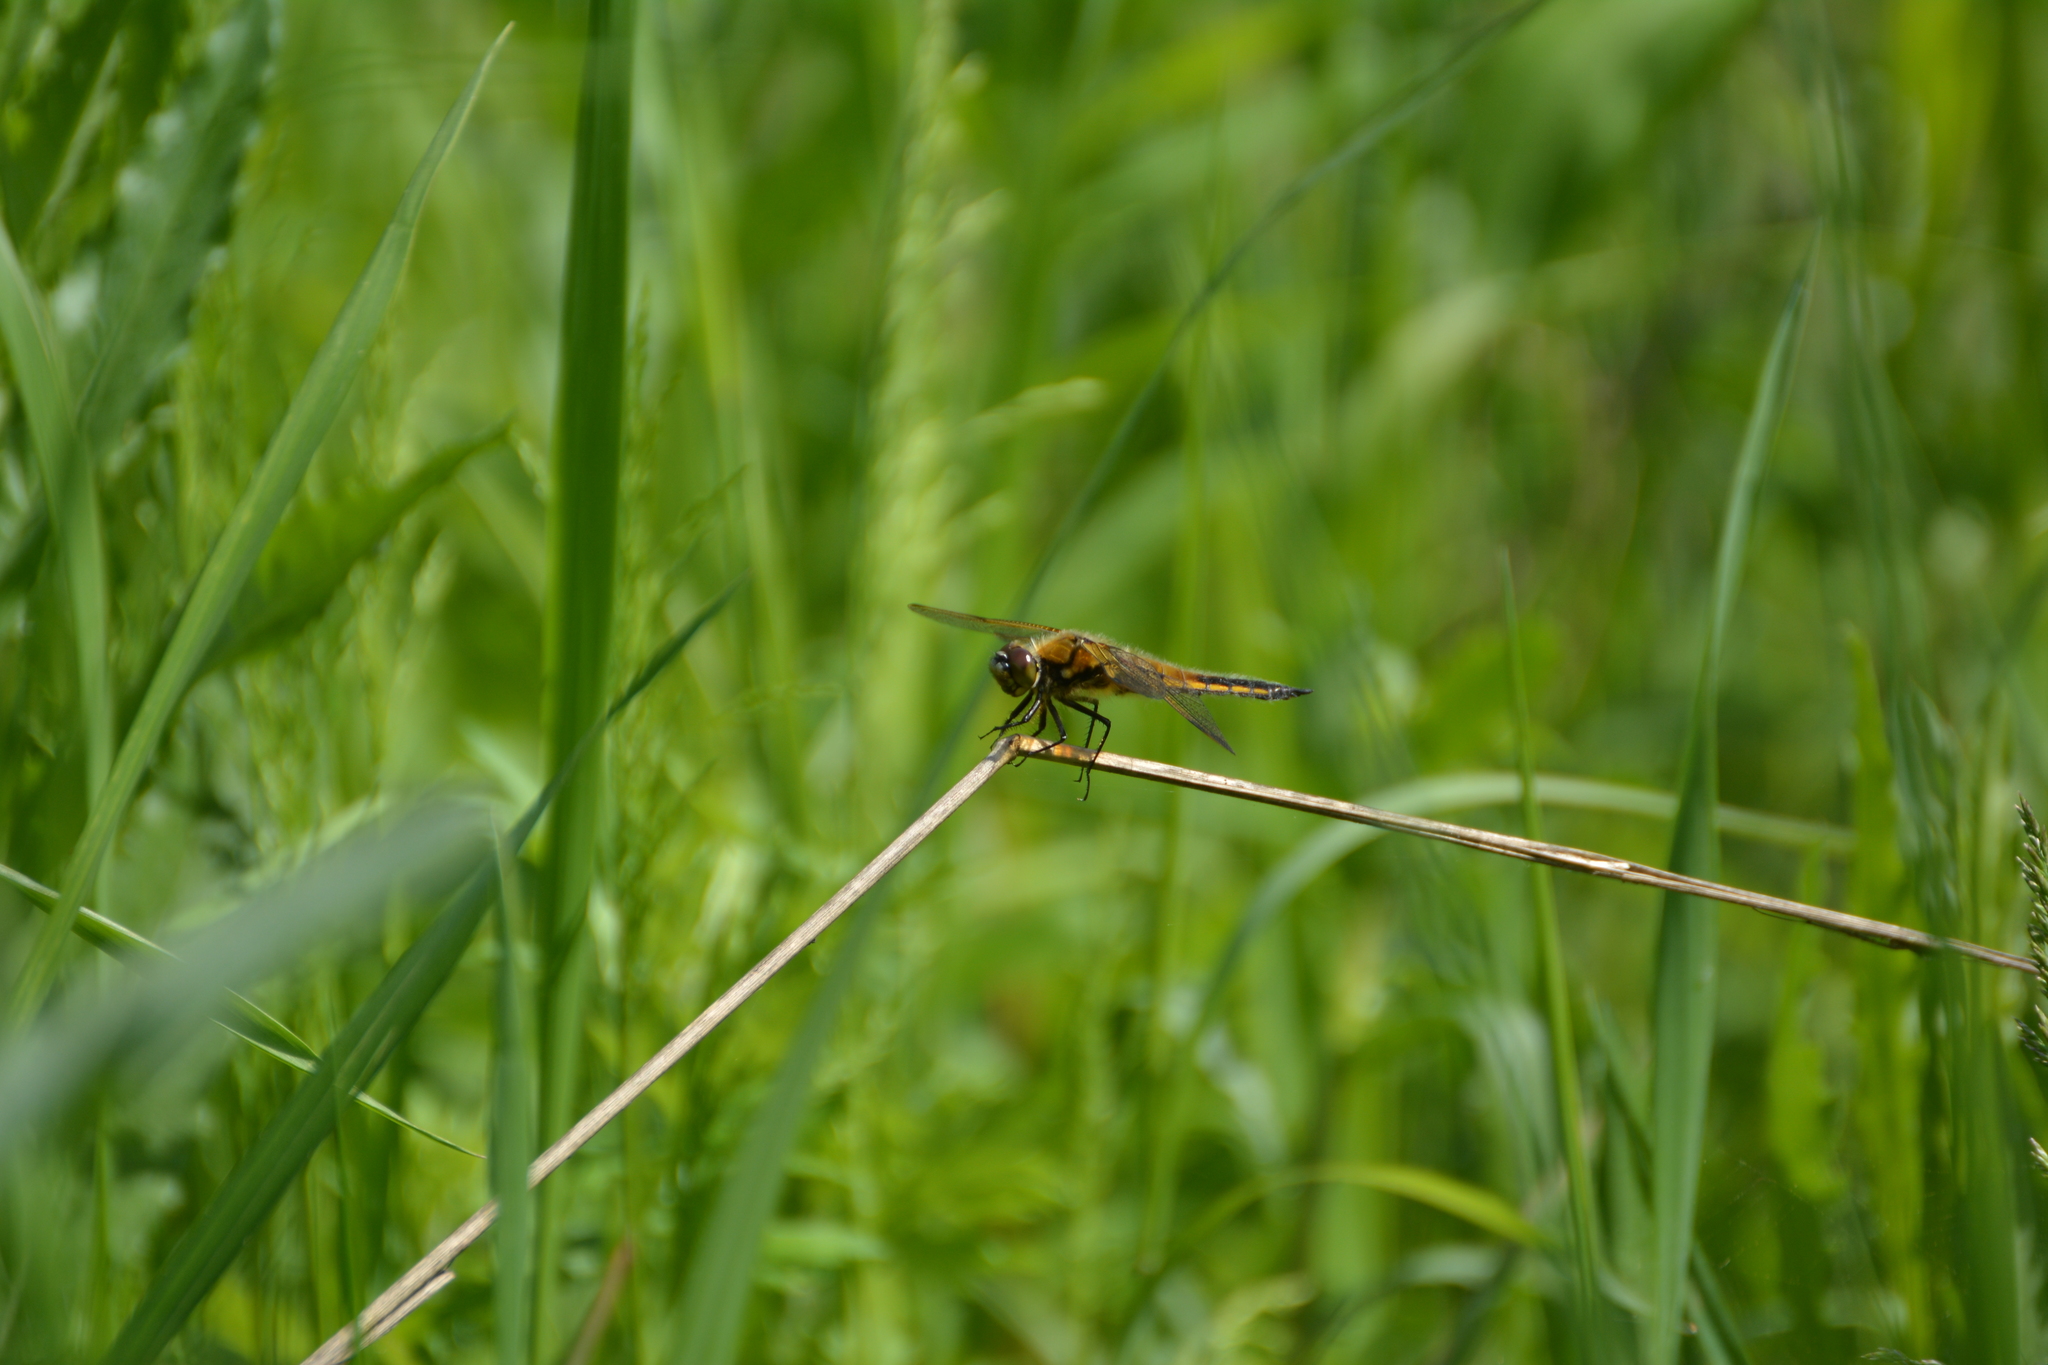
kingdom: Animalia
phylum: Arthropoda
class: Insecta
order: Odonata
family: Libellulidae
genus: Libellula
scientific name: Libellula quadrimaculata
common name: Four-spotted chaser
